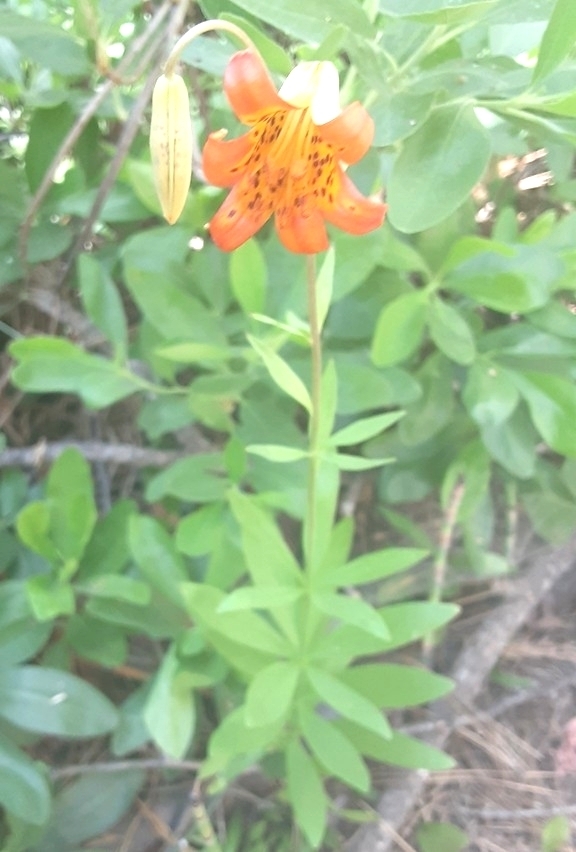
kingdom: Plantae
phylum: Tracheophyta
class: Liliopsida
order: Liliales
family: Liliaceae
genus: Lilium
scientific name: Lilium parvum
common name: Alpine lily
